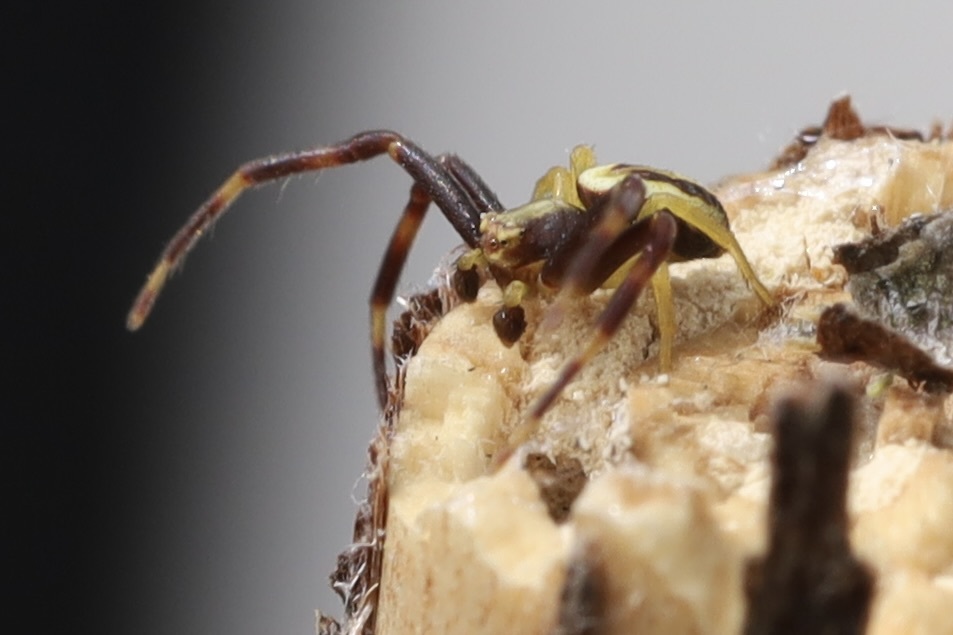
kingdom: Animalia
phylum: Arthropoda
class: Arachnida
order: Araneae
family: Thomisidae
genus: Misumena
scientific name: Misumena vatia
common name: Goldenrod crab spider
